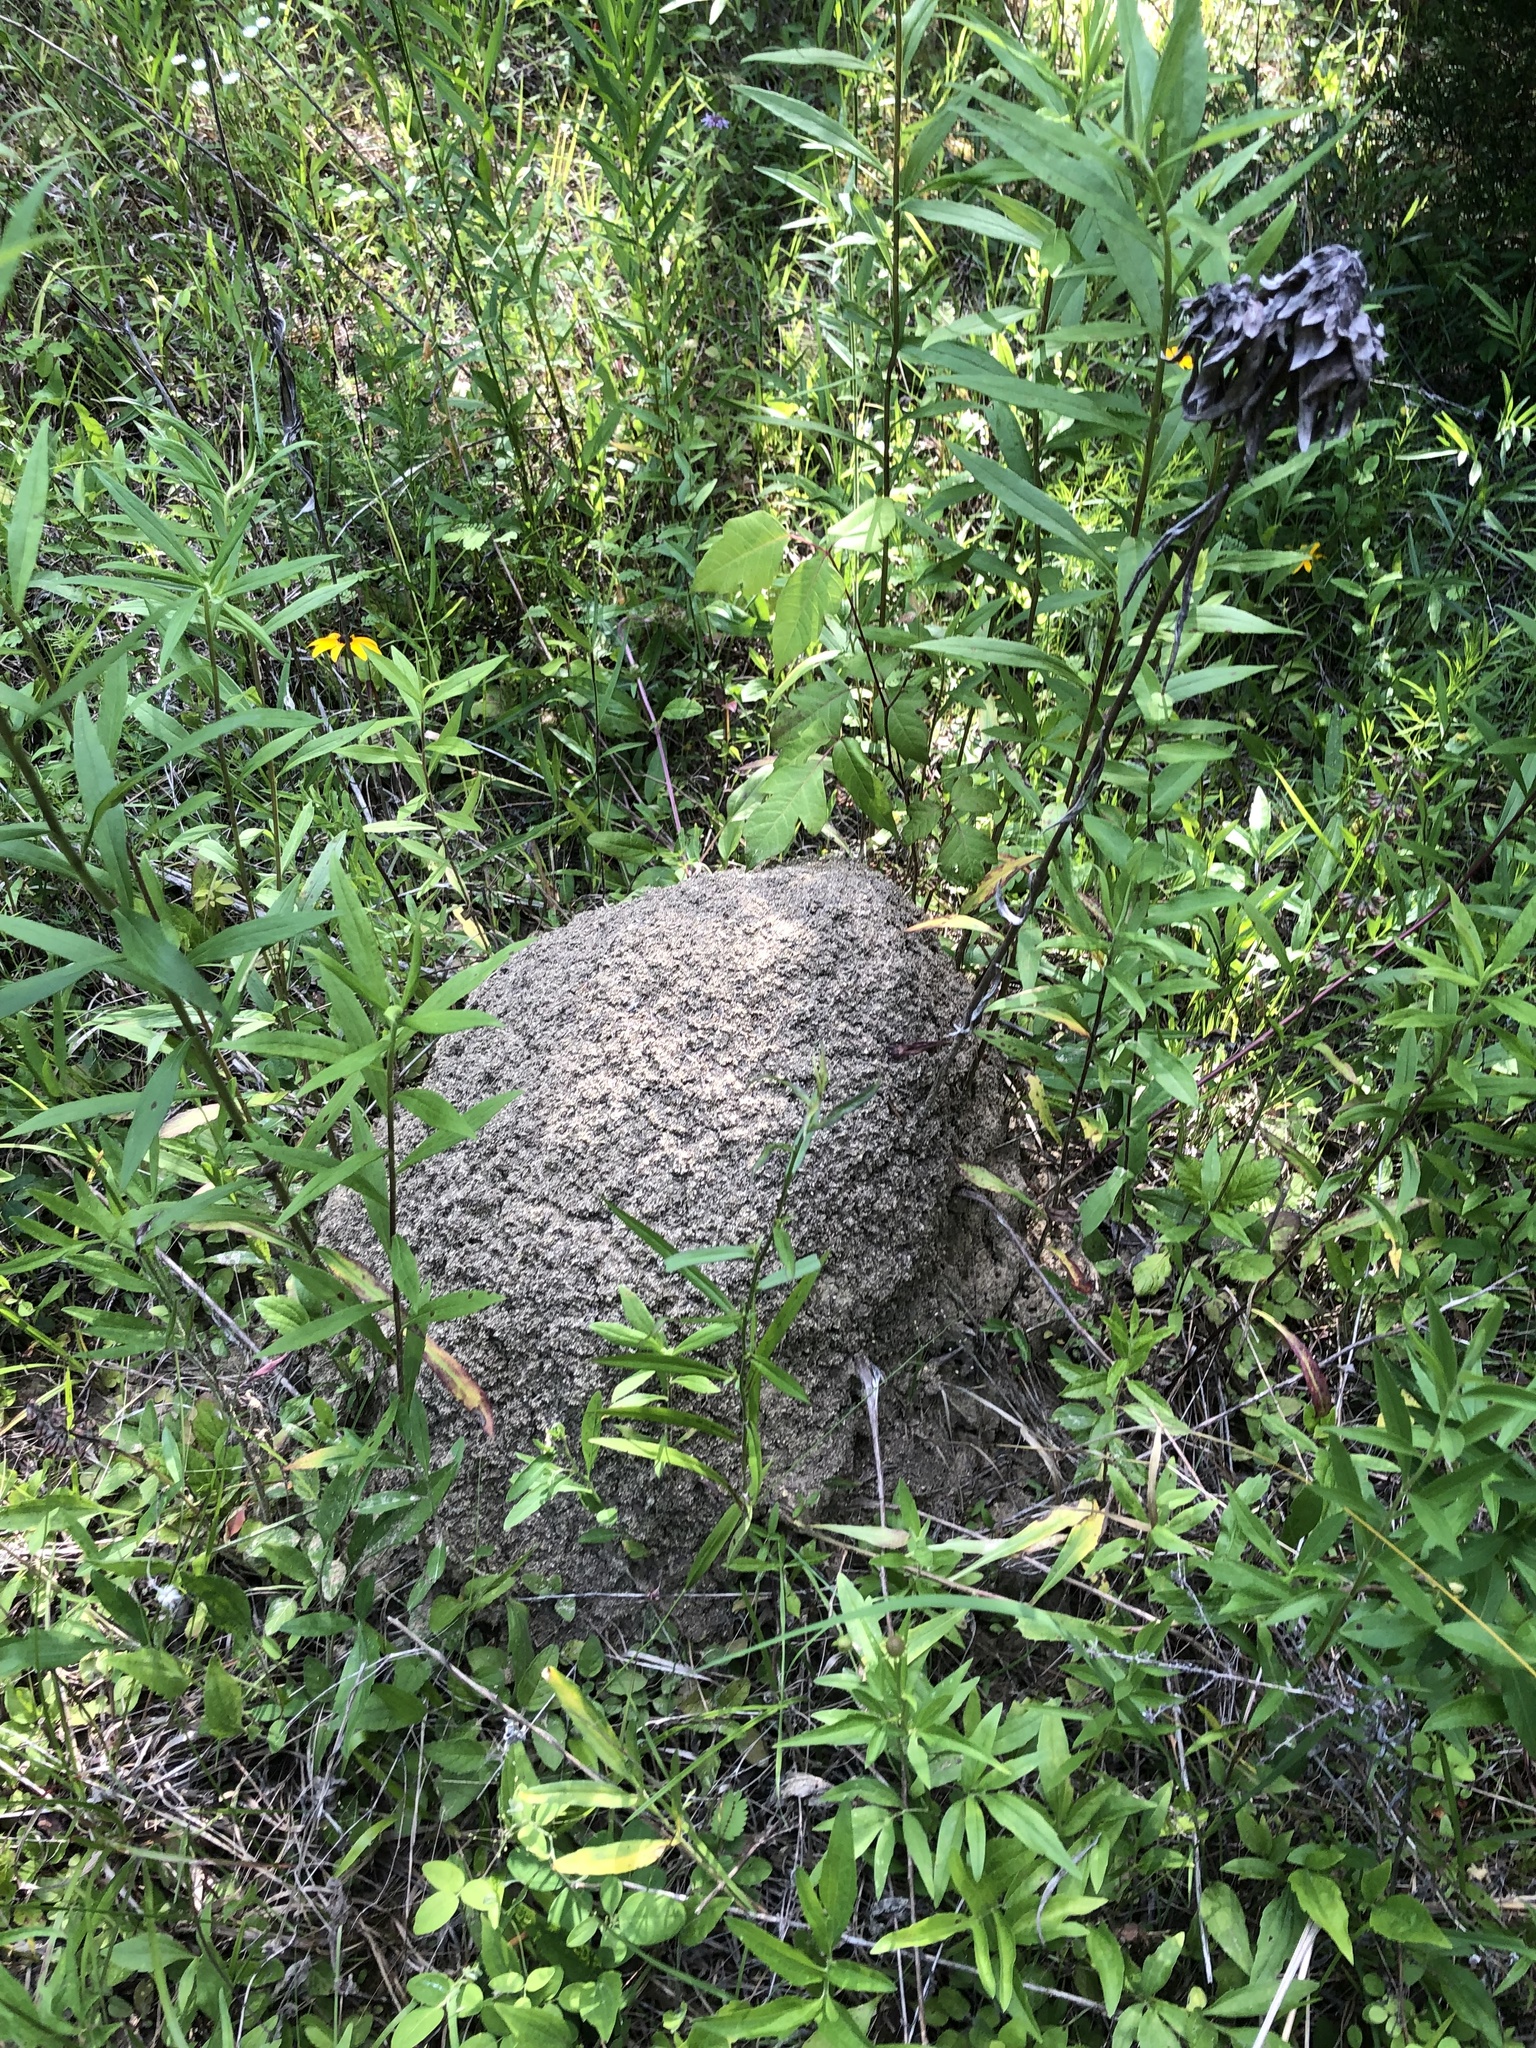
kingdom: Animalia
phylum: Arthropoda
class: Insecta
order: Hymenoptera
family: Formicidae
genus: Solenopsis
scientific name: Solenopsis invicta
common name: Red imported fire ant
